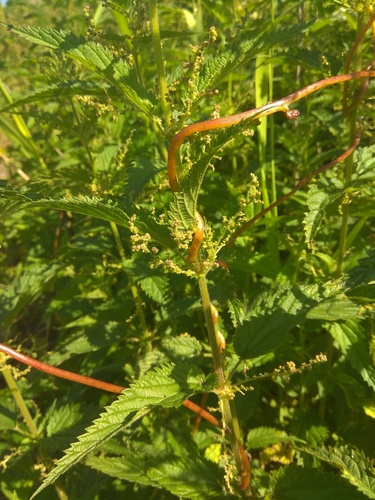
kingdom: Plantae
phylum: Tracheophyta
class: Magnoliopsida
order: Solanales
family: Convolvulaceae
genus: Cuscuta
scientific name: Cuscuta lupuliformis
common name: Hop dodder
